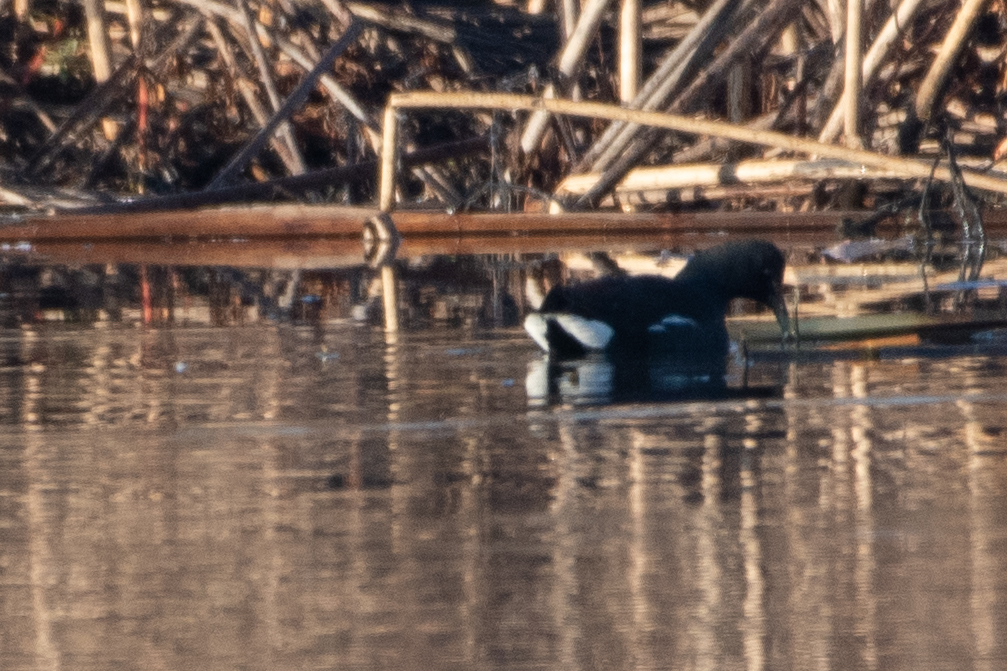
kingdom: Animalia
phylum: Chordata
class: Aves
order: Gruiformes
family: Rallidae
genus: Gallinula
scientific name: Gallinula chloropus
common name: Common moorhen
